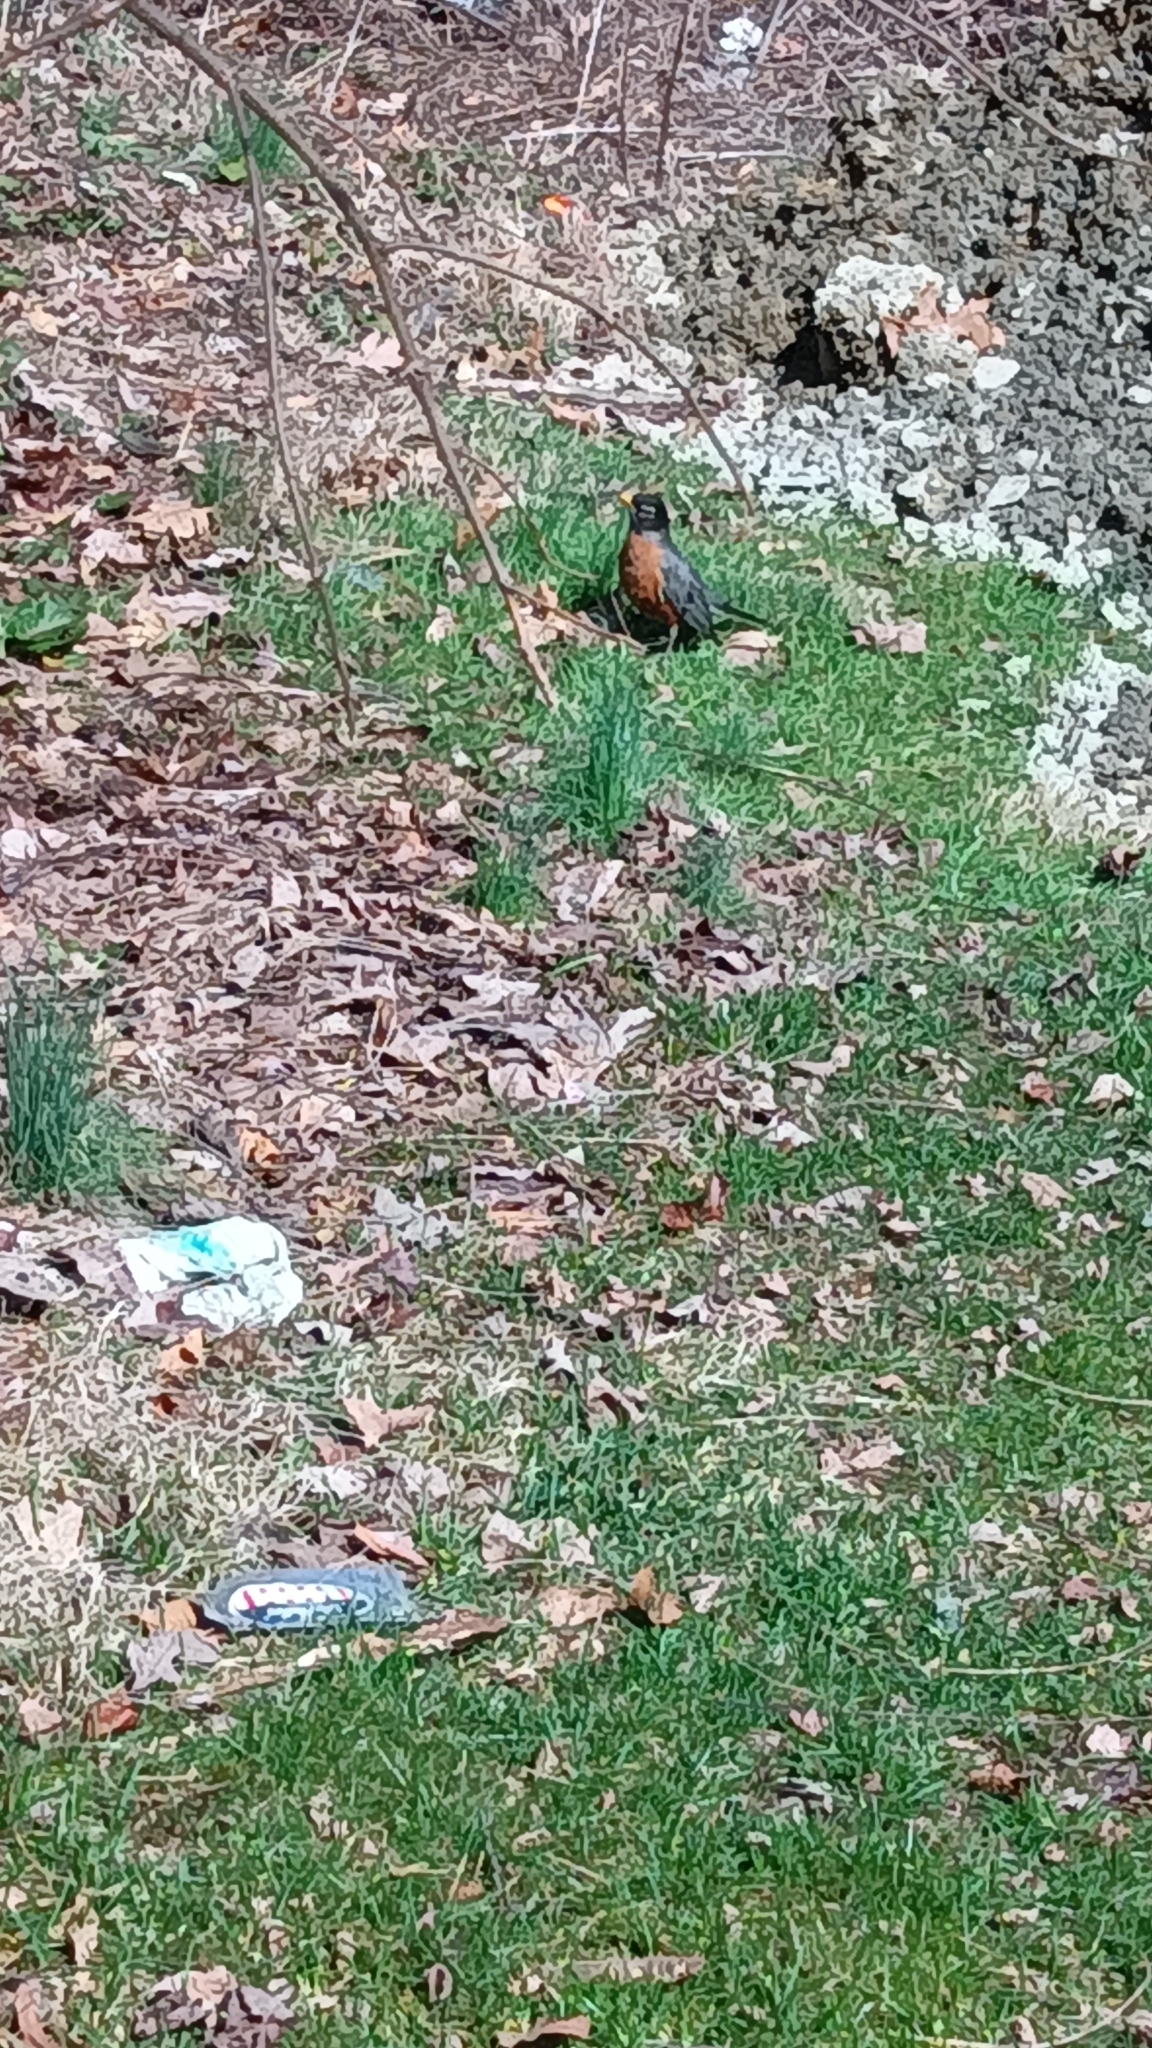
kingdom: Animalia
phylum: Chordata
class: Aves
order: Passeriformes
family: Turdidae
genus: Turdus
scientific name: Turdus migratorius
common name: American robin
